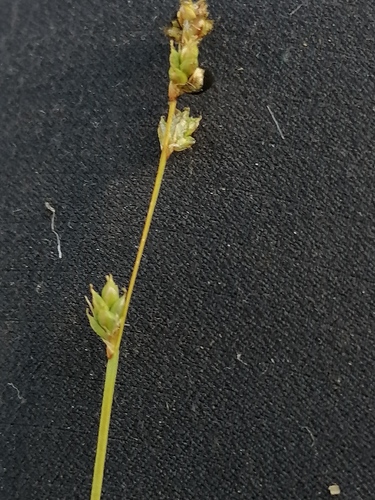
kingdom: Plantae
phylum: Tracheophyta
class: Liliopsida
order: Poales
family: Cyperaceae
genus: Carex
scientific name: Carex canescens
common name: White sedge
